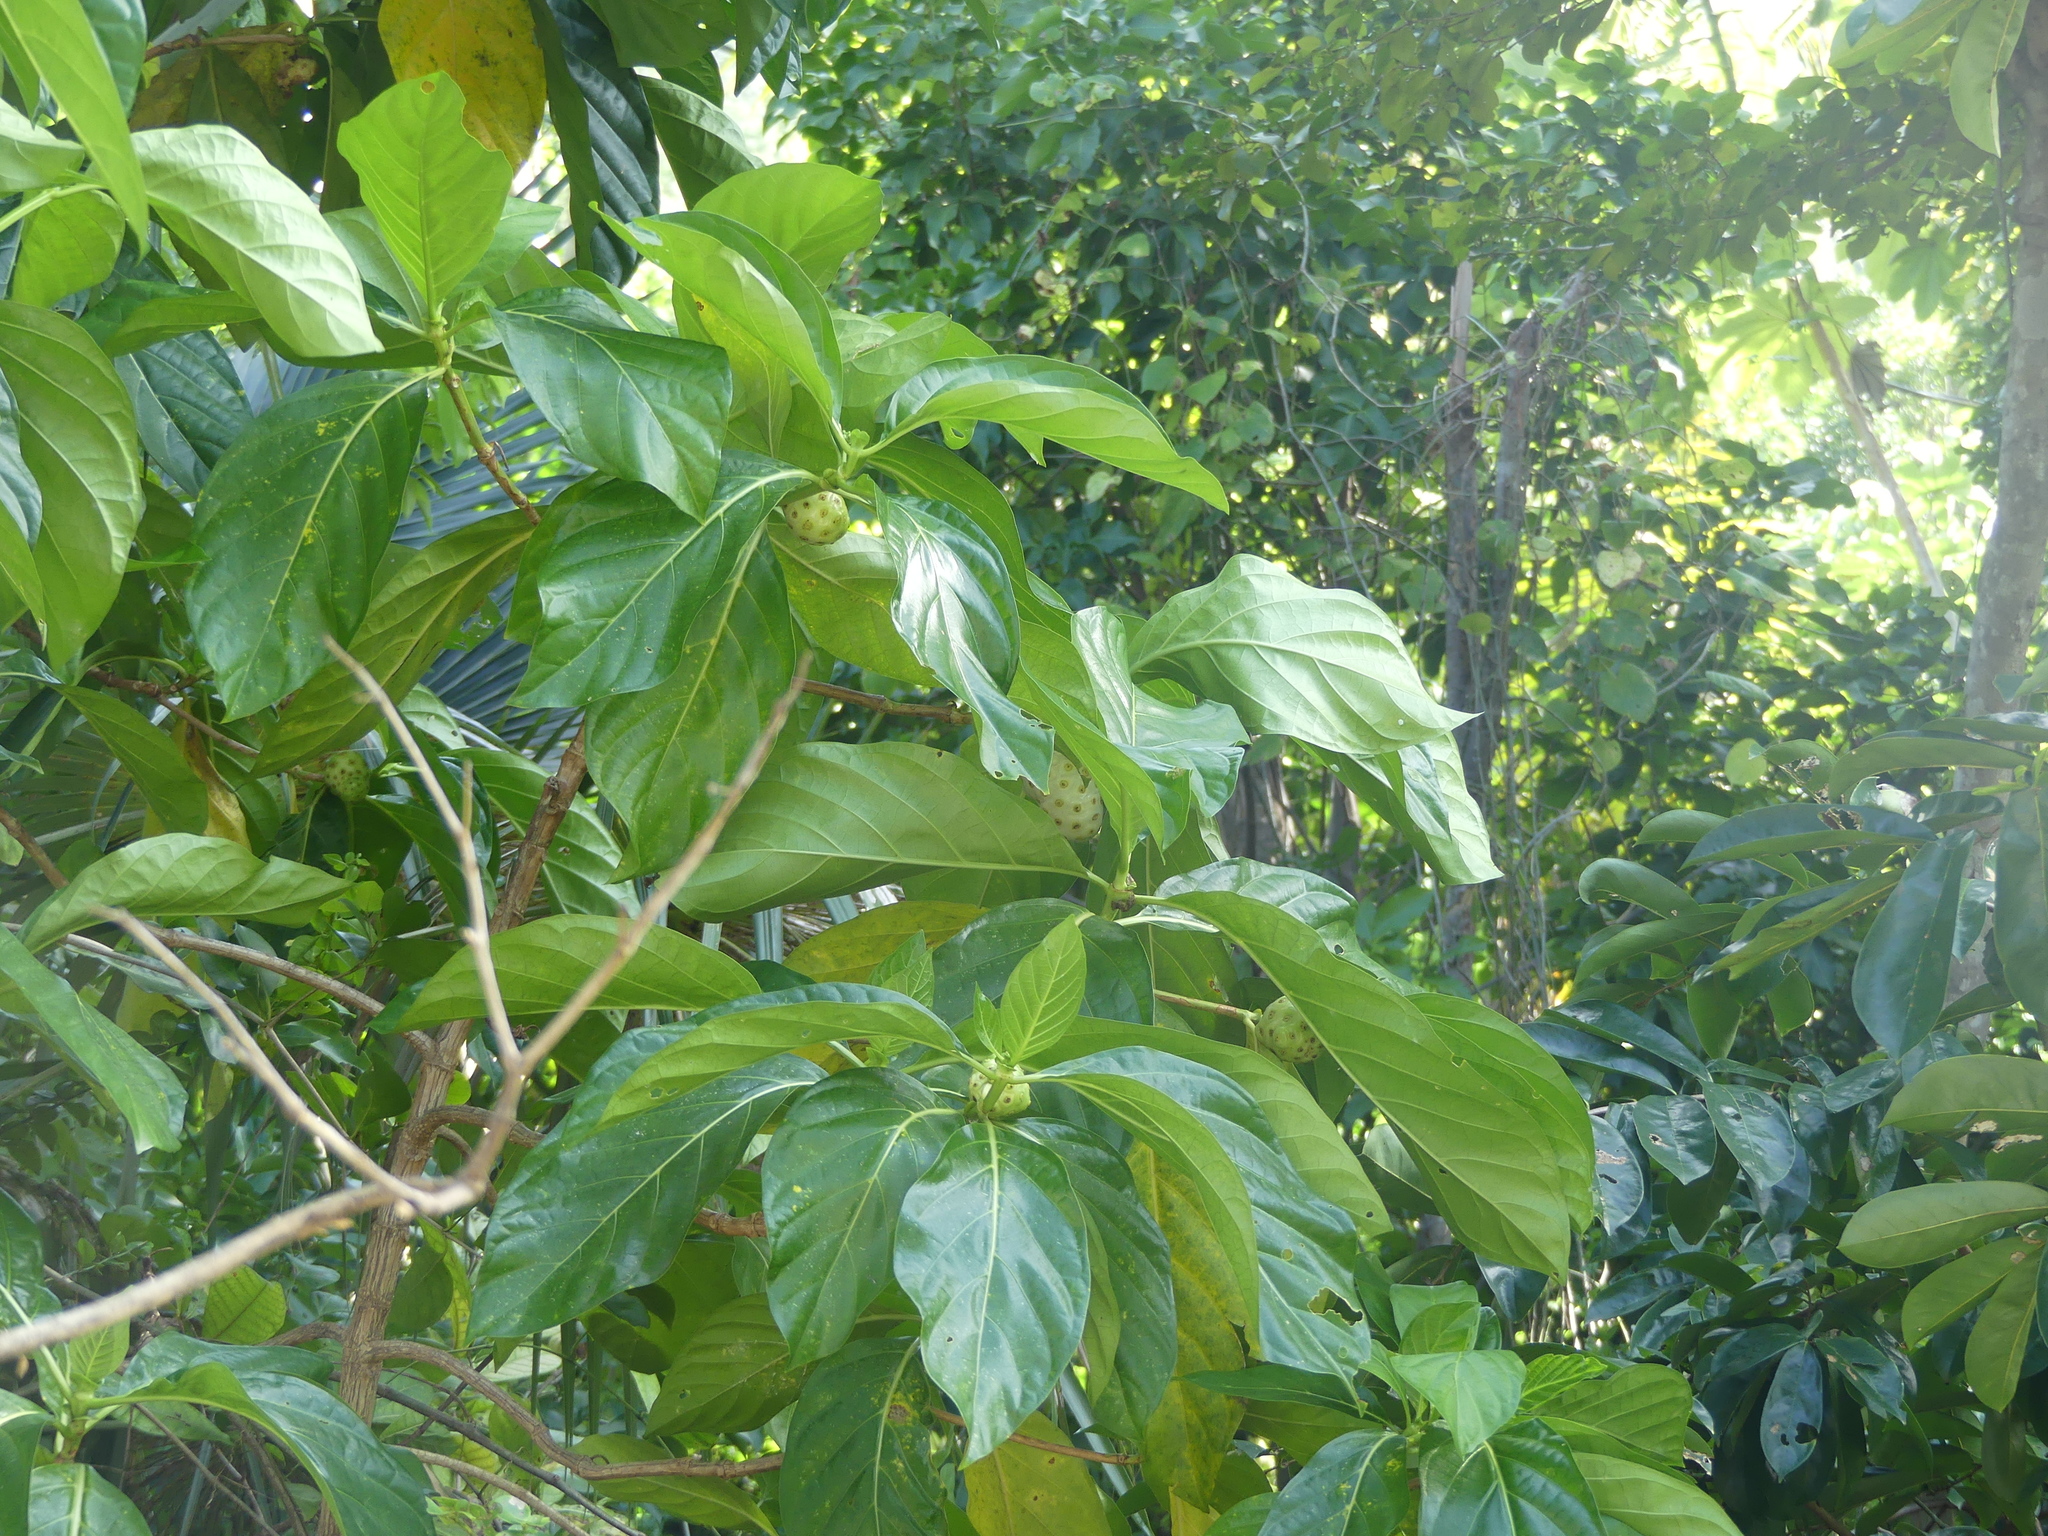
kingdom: Plantae
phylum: Tracheophyta
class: Magnoliopsida
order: Gentianales
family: Rubiaceae
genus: Morinda
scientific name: Morinda citrifolia
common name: Indian-mulberry
